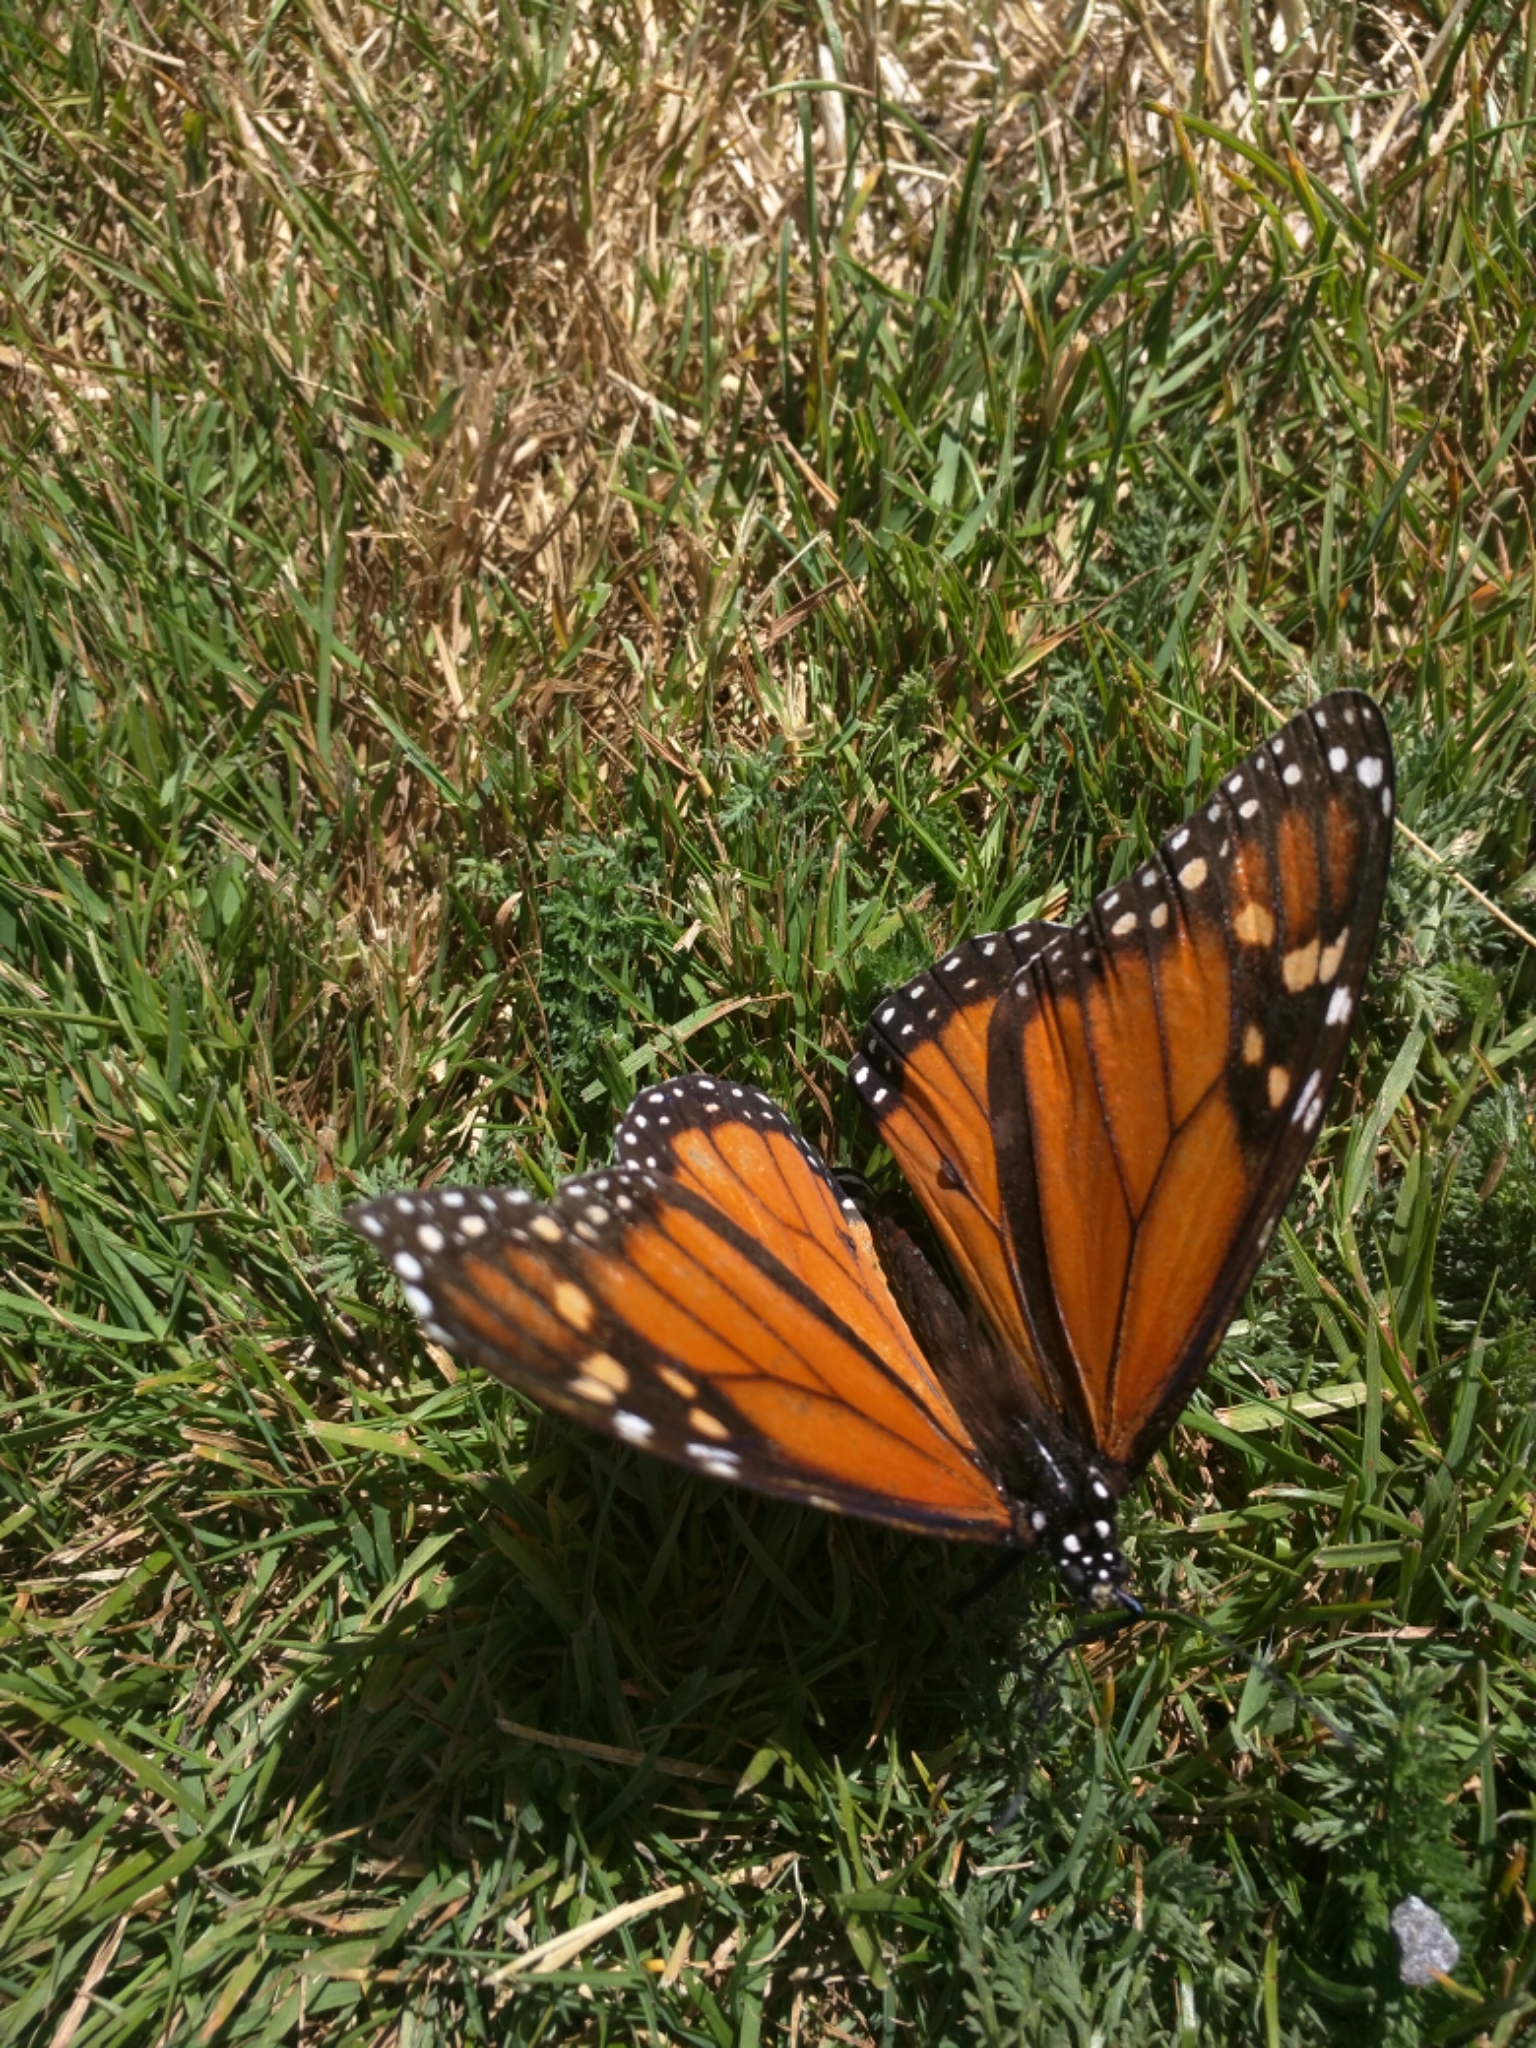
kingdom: Animalia
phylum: Arthropoda
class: Insecta
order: Lepidoptera
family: Nymphalidae
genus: Danaus
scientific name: Danaus plexippus
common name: Monarch
